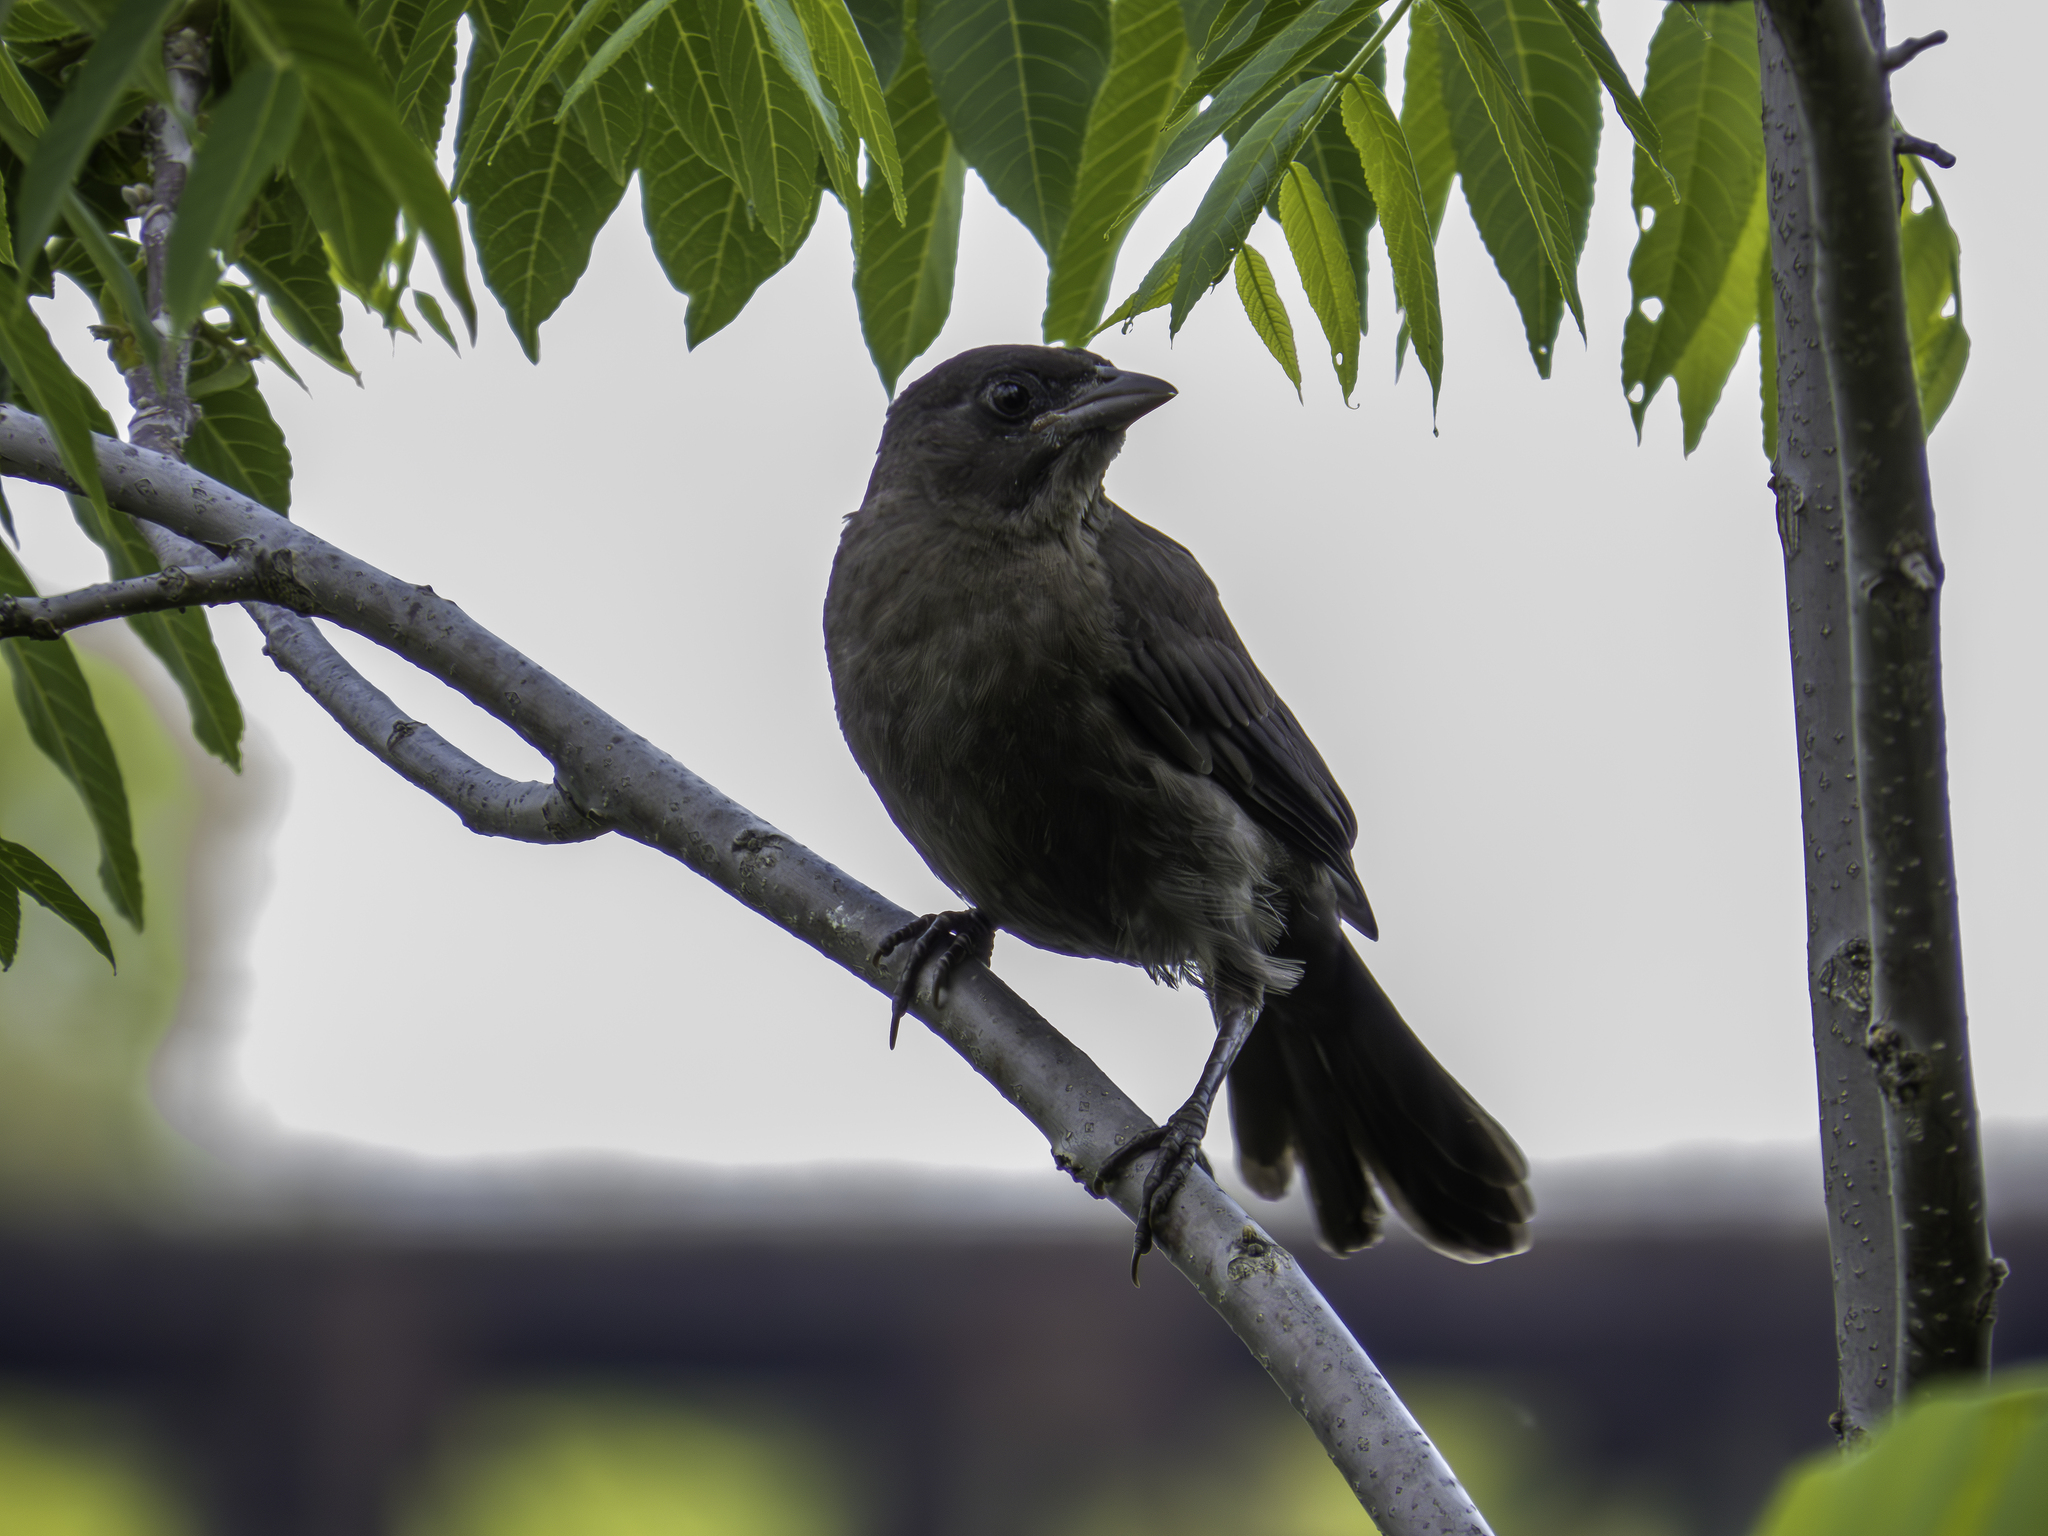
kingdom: Animalia
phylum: Chordata
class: Aves
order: Passeriformes
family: Icteridae
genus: Quiscalus
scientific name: Quiscalus quiscula
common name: Common grackle
